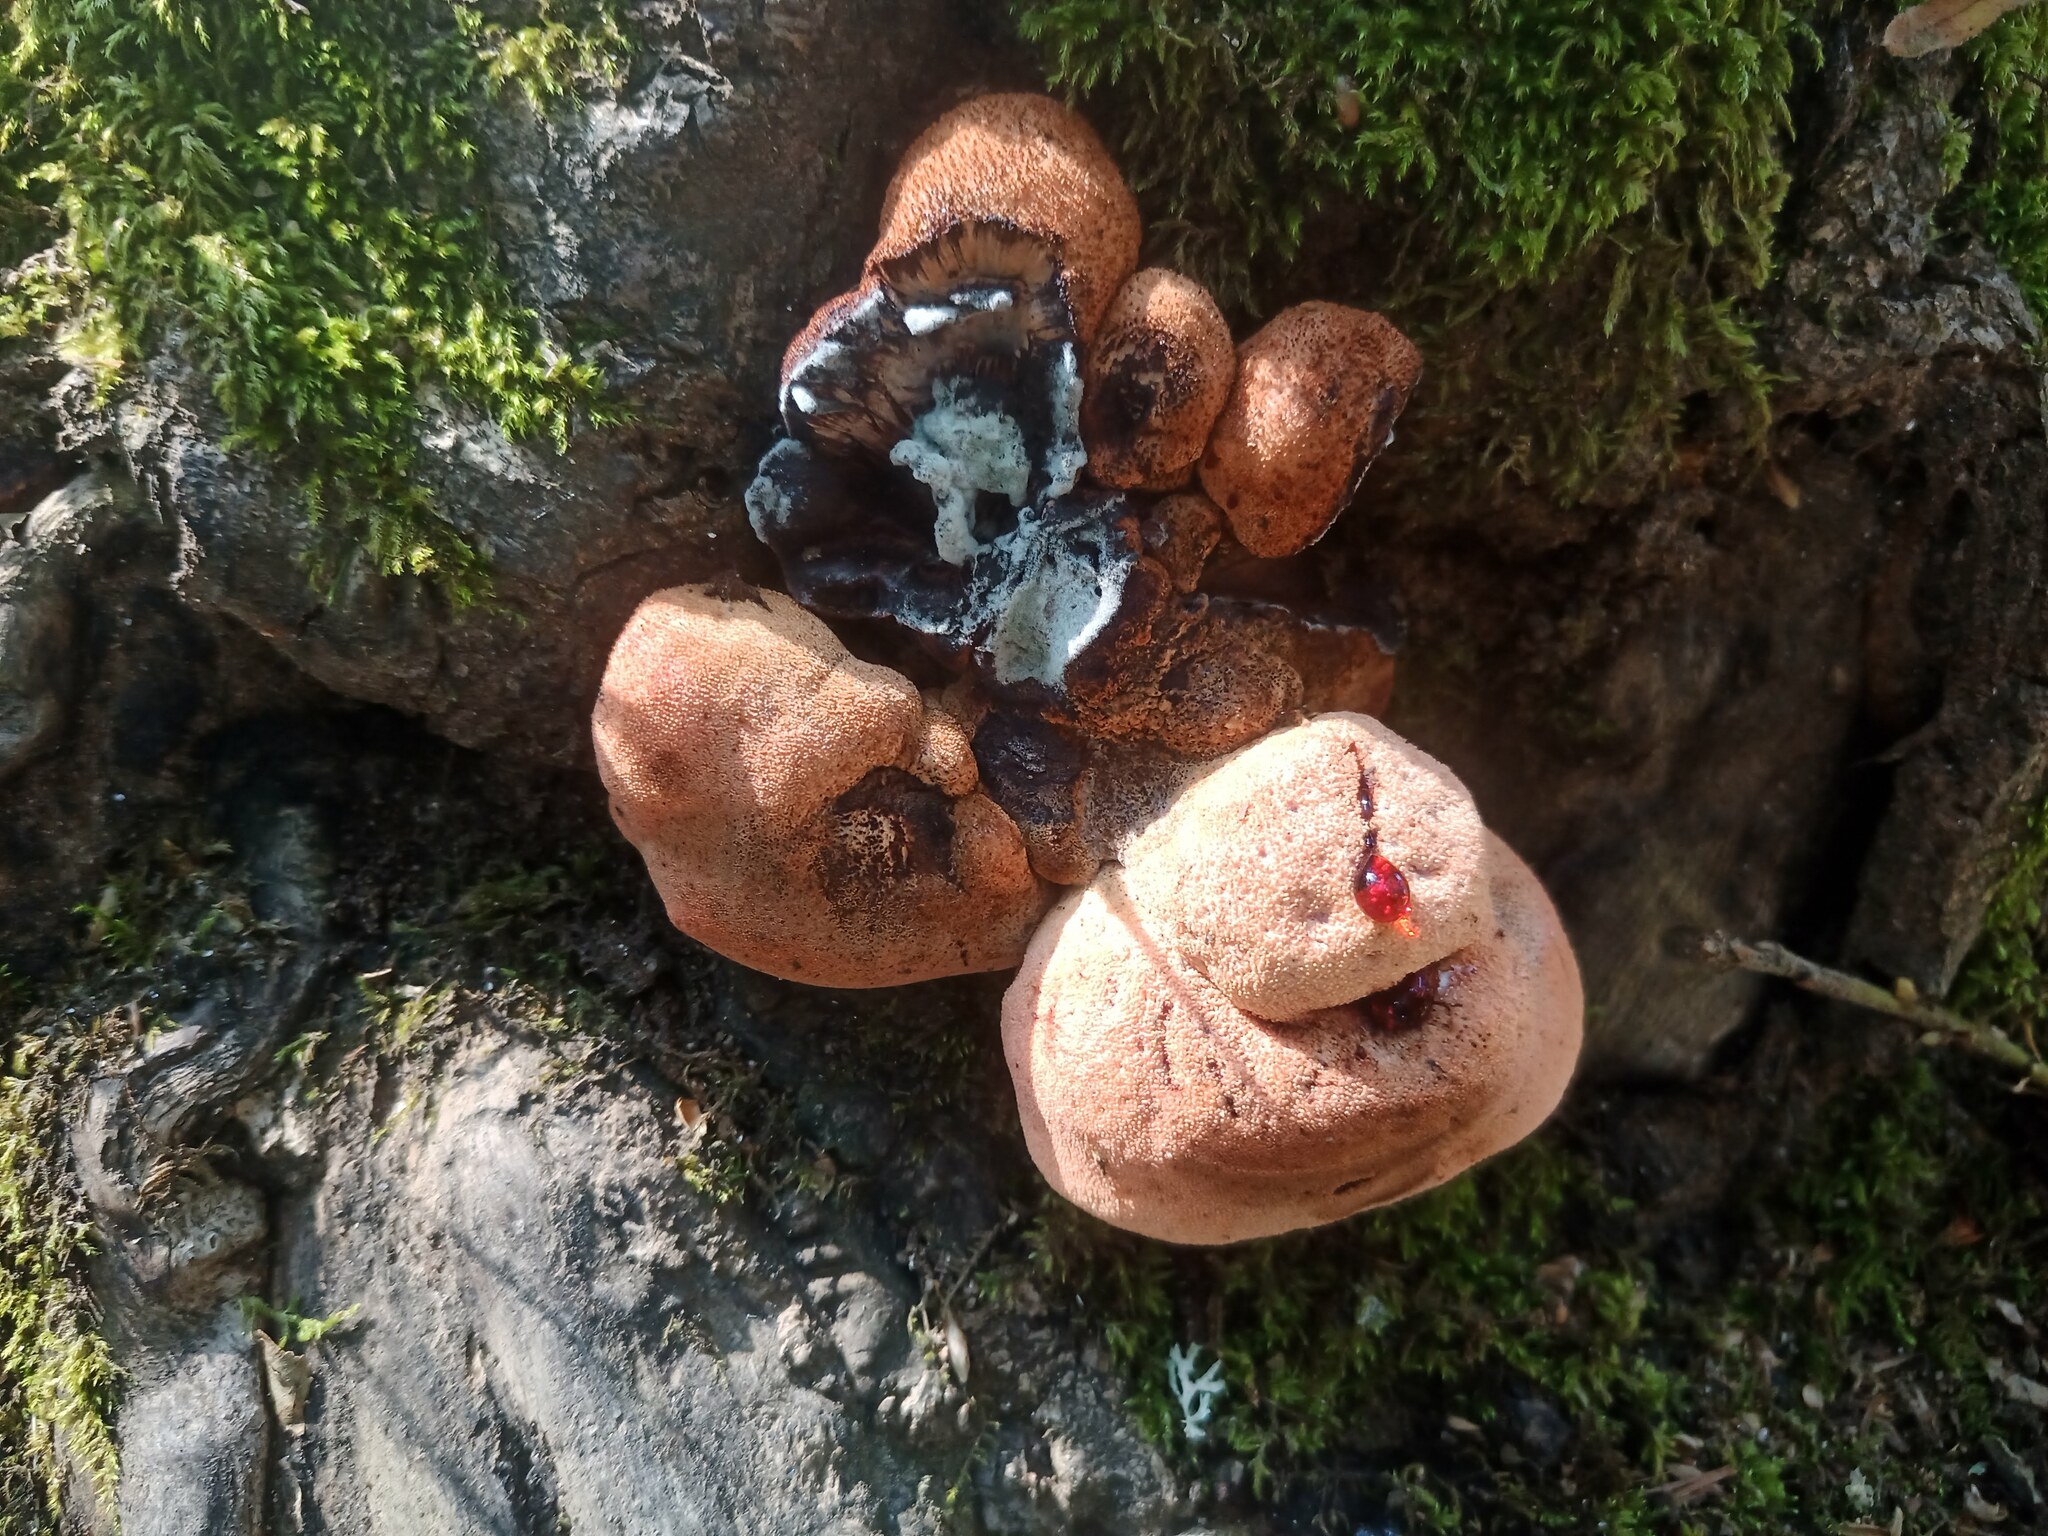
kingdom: Fungi
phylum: Basidiomycota
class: Agaricomycetes
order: Agaricales
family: Fistulinaceae
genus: Fistulina
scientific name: Fistulina hepatica
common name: Beef-steak fungus
